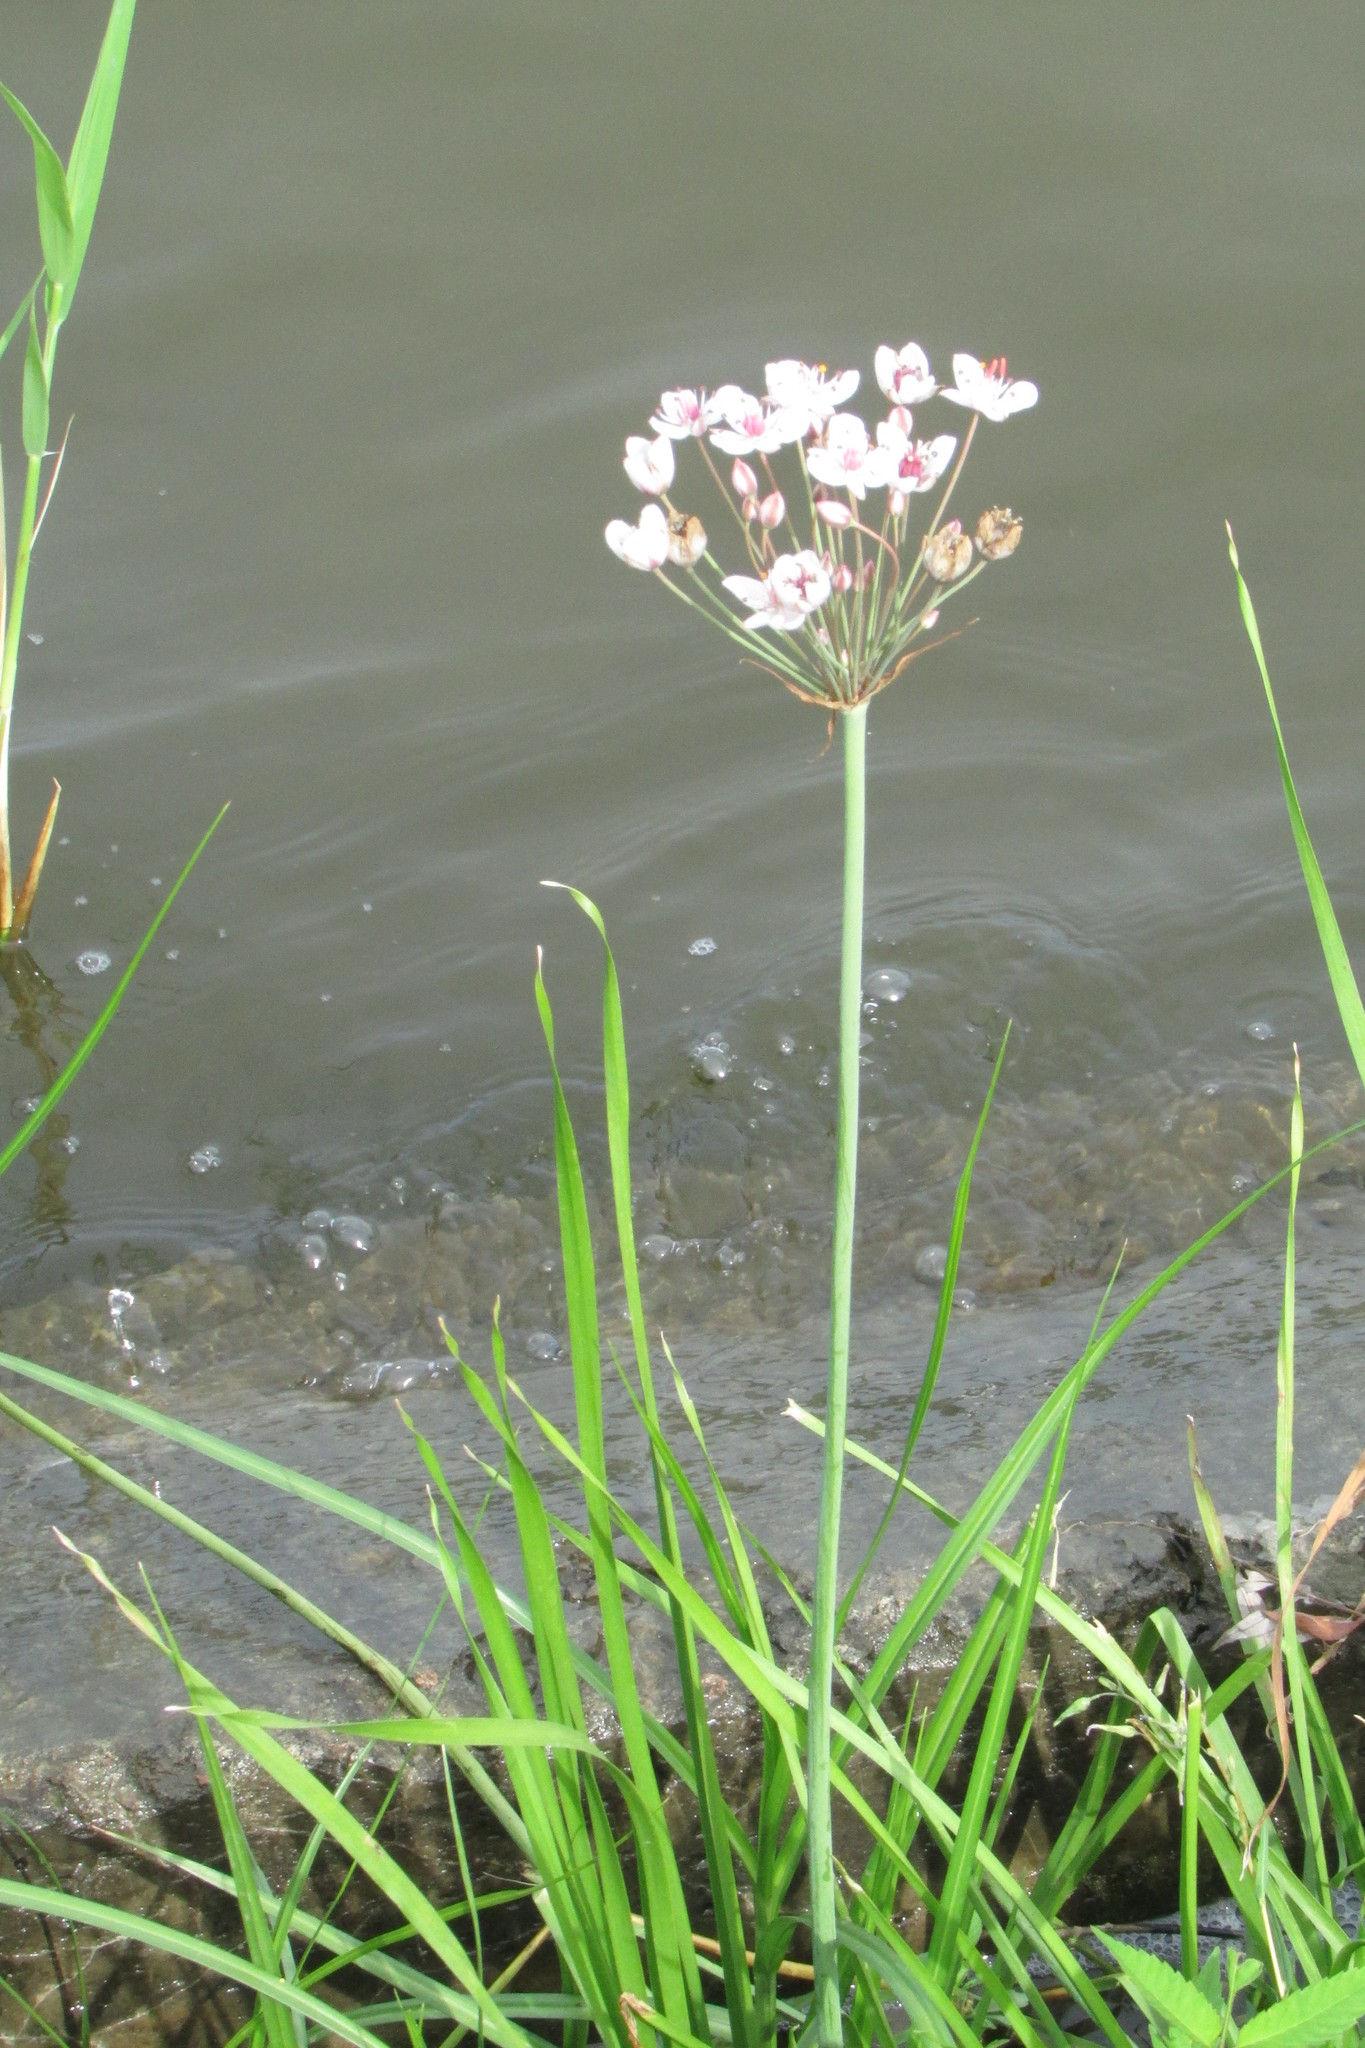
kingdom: Plantae
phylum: Tracheophyta
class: Liliopsida
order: Alismatales
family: Butomaceae
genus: Butomus
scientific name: Butomus umbellatus
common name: Flowering-rush
